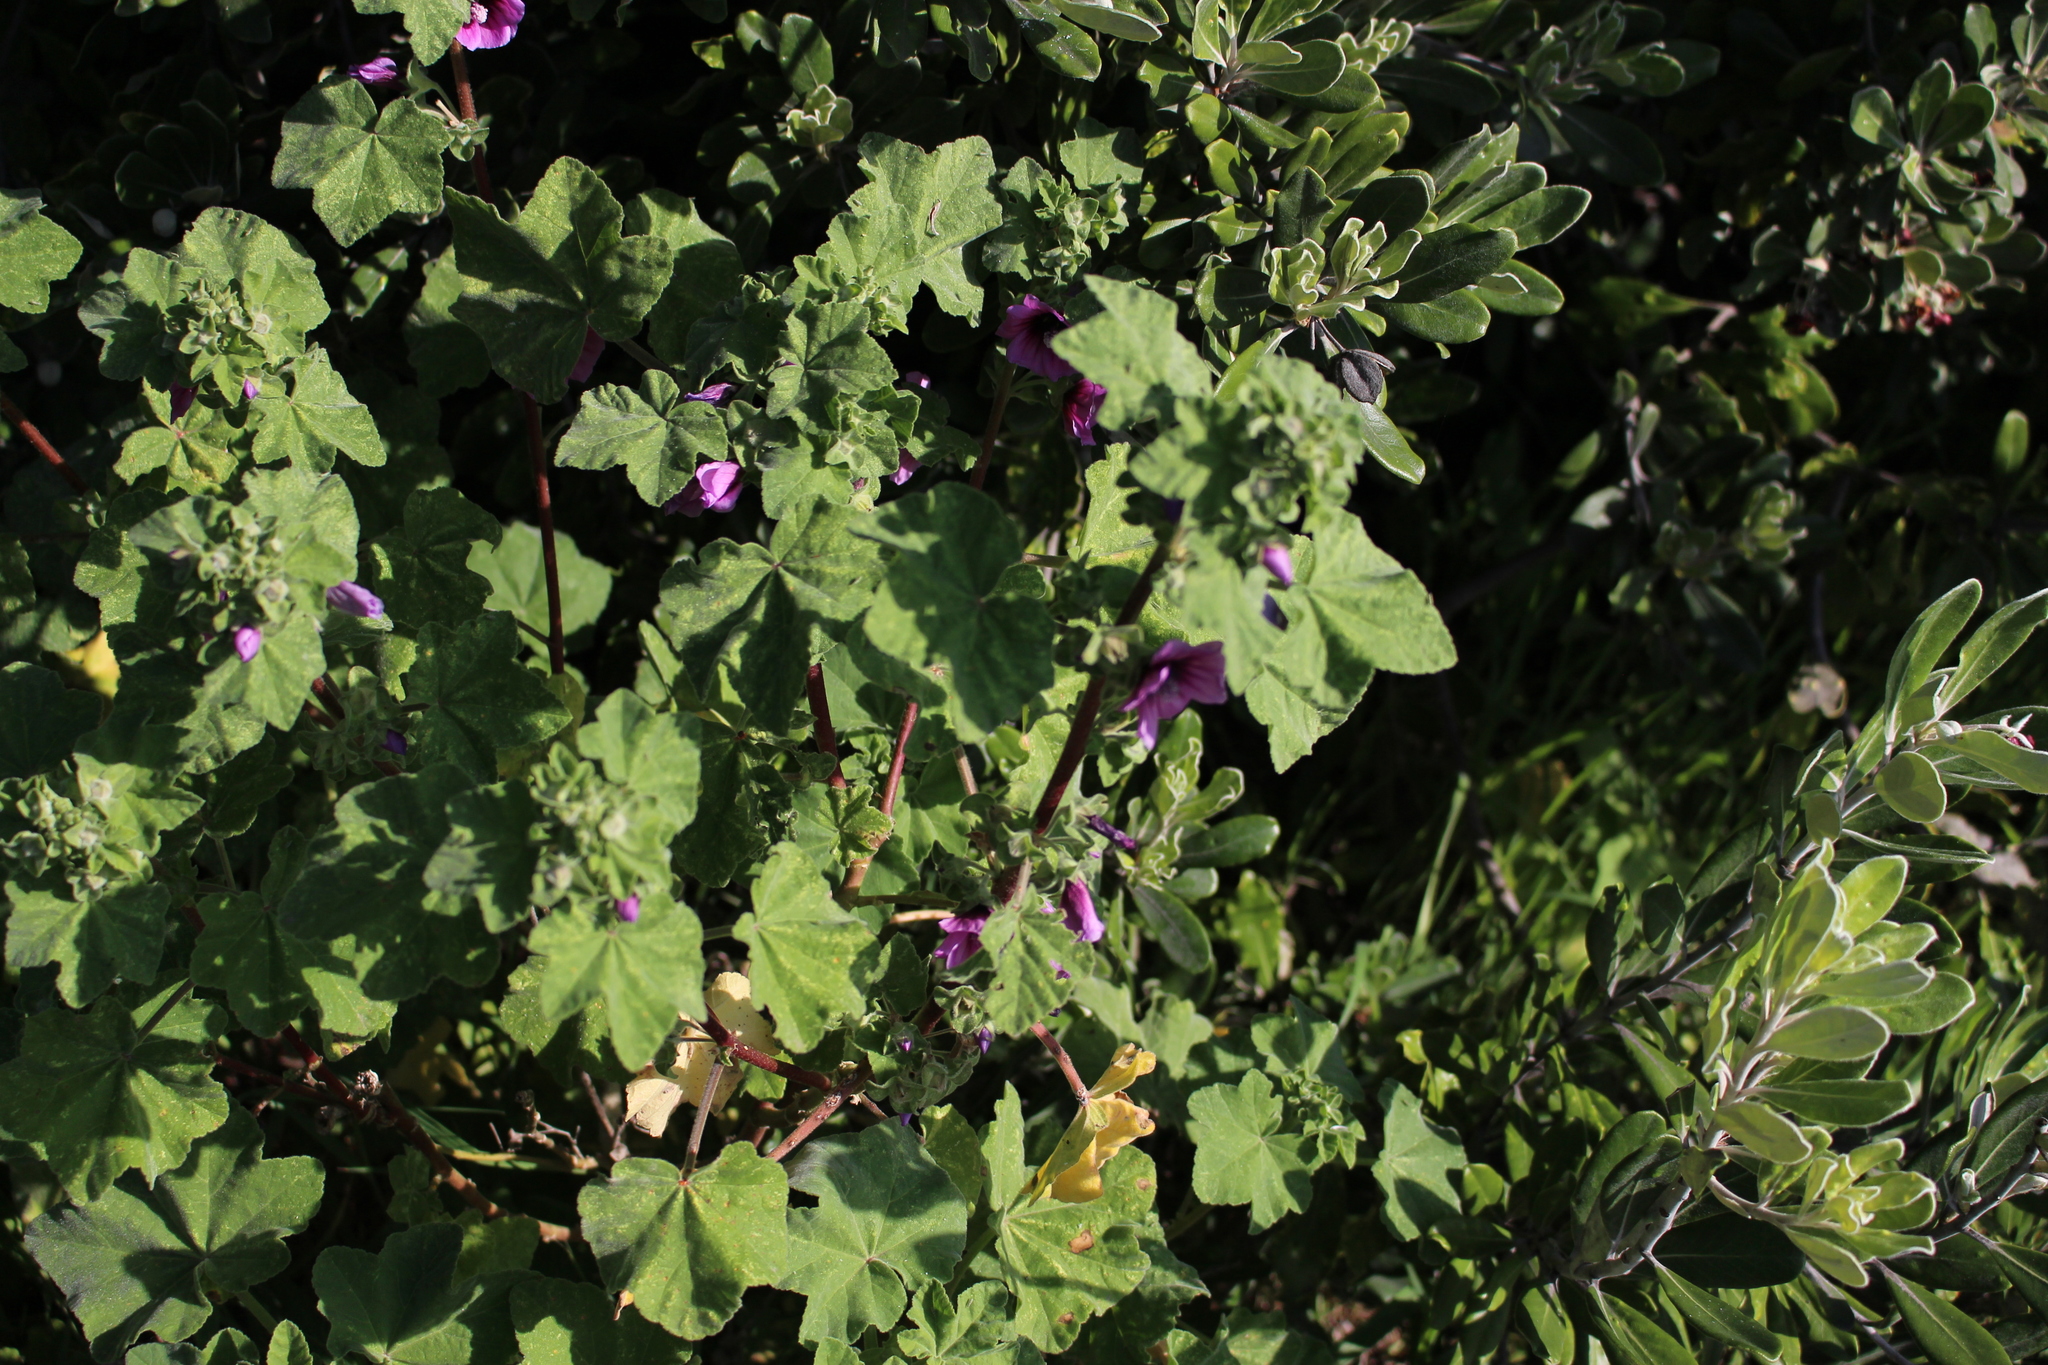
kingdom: Plantae
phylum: Tracheophyta
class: Magnoliopsida
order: Malvales
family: Malvaceae
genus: Malva
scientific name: Malva arborea
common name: Tree mallow
